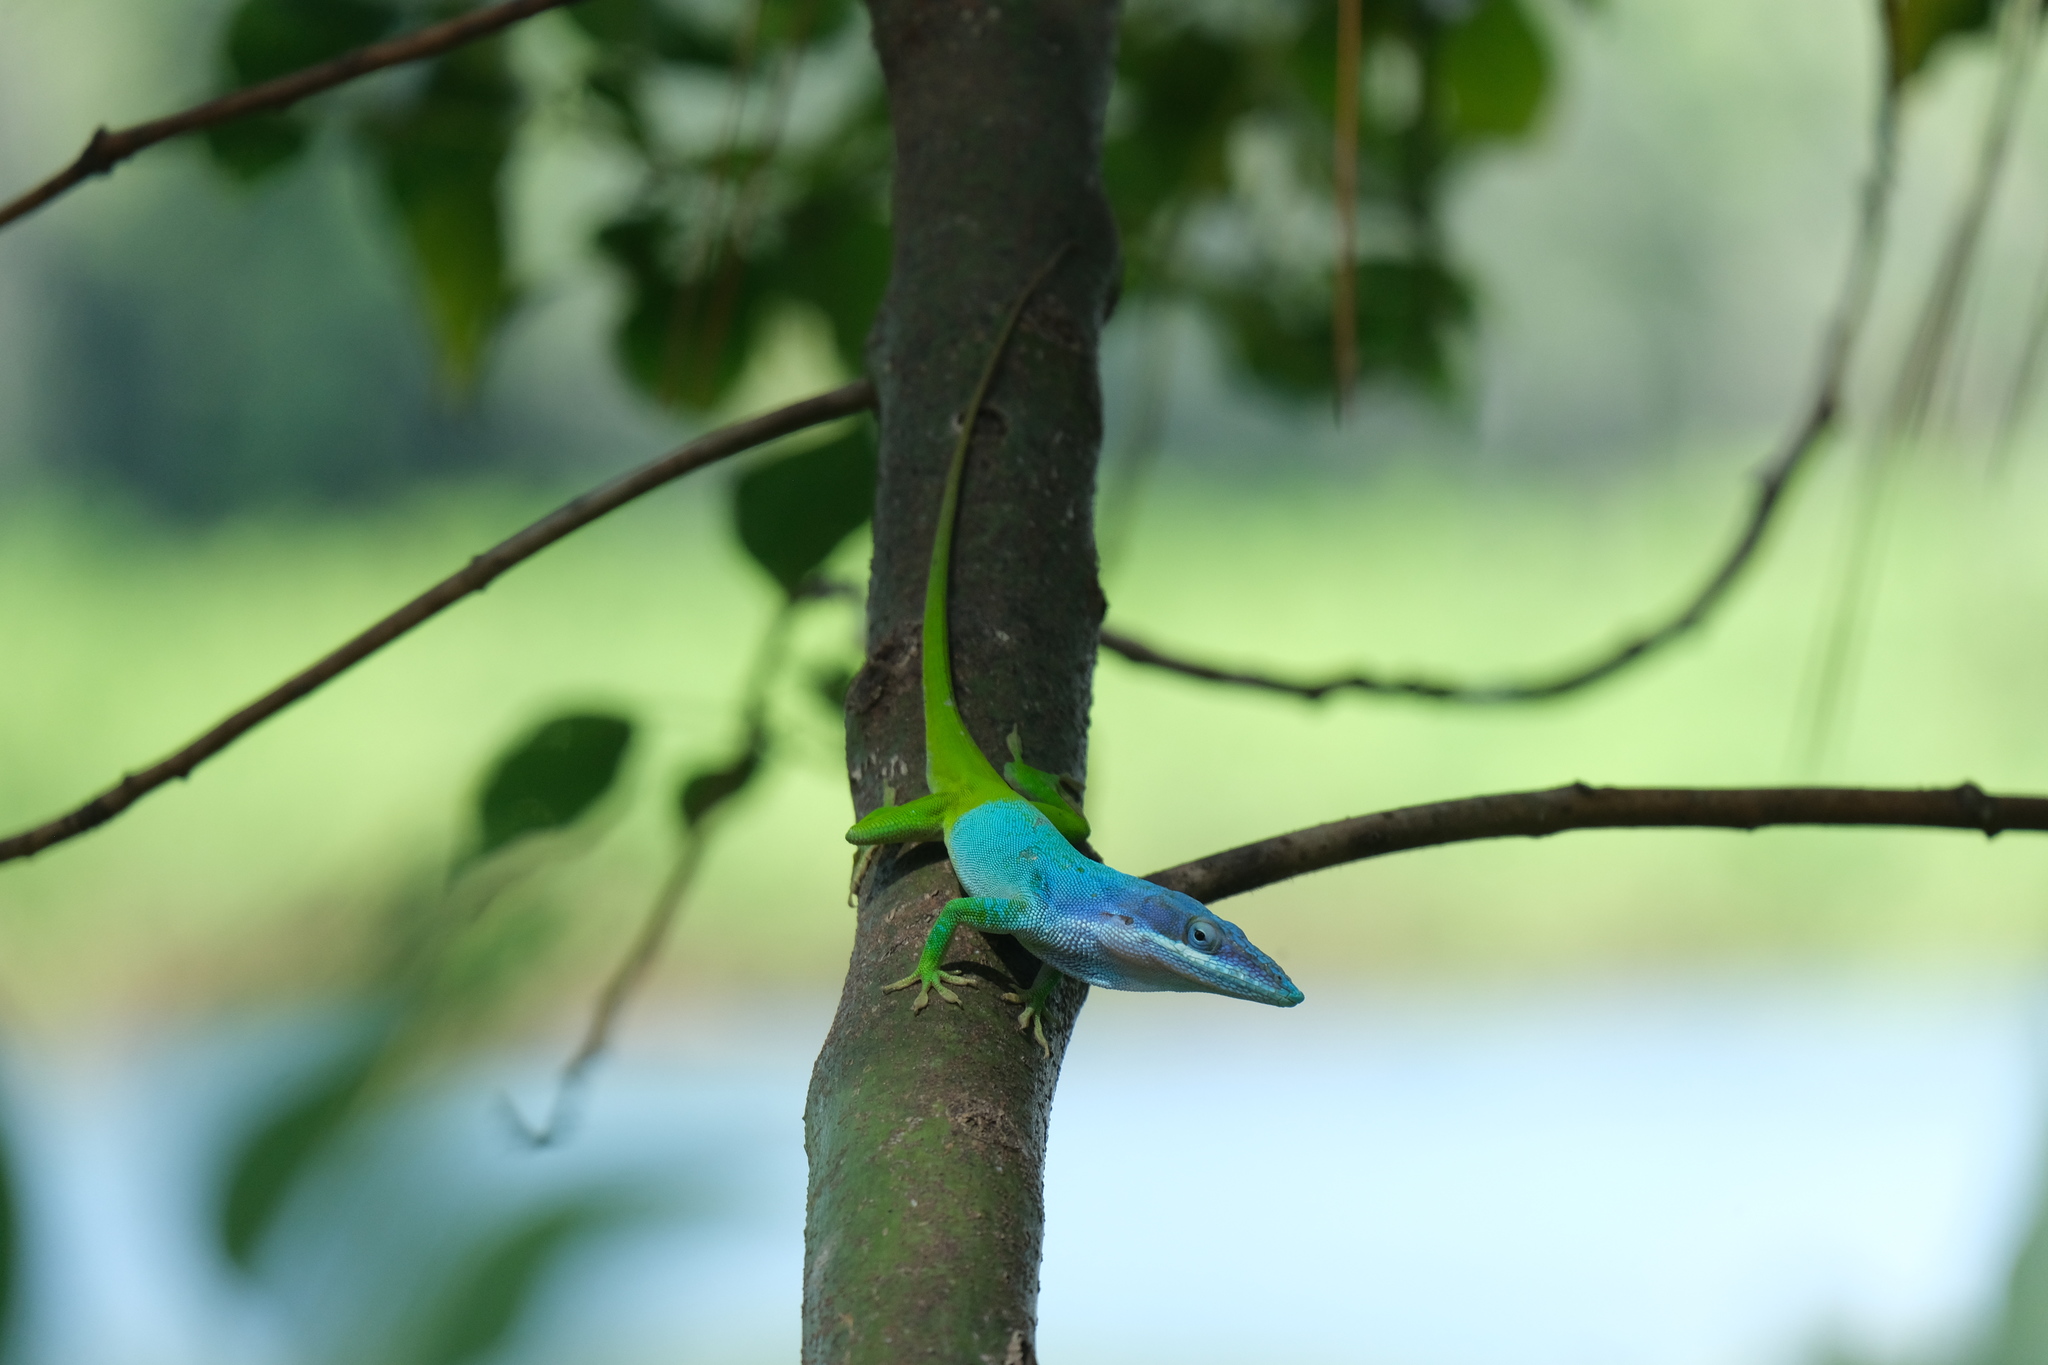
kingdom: Animalia
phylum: Chordata
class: Squamata
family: Dactyloidae
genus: Anolis
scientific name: Anolis allisoni
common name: Allison's anole
